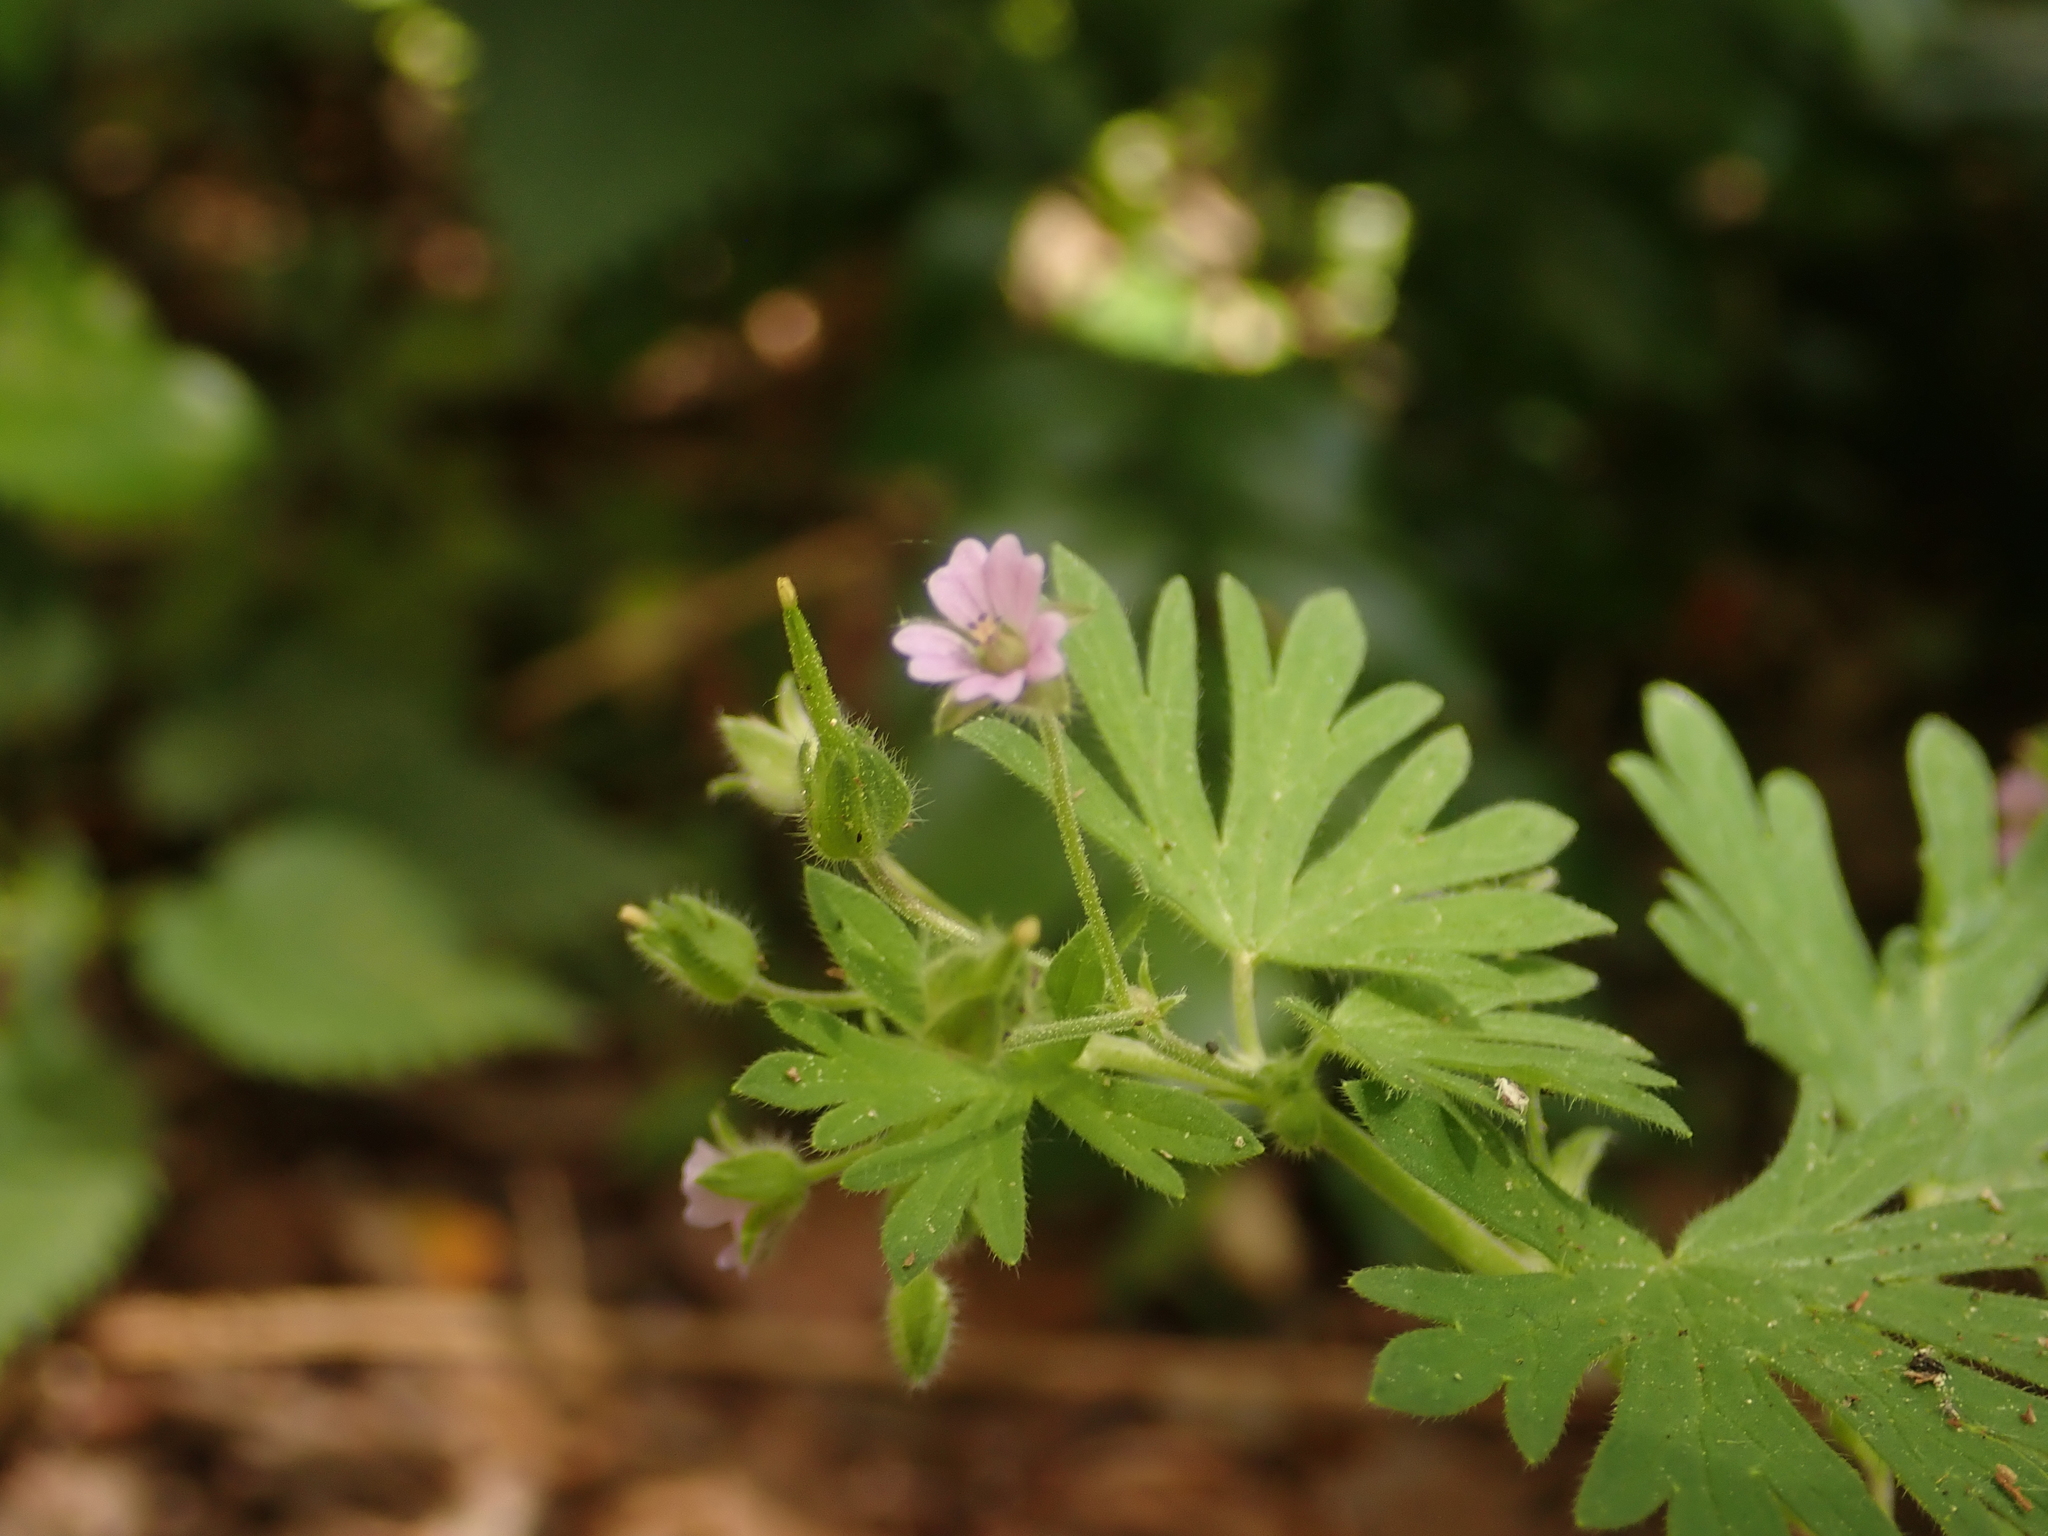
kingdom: Plantae
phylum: Tracheophyta
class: Magnoliopsida
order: Geraniales
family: Geraniaceae
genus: Geranium
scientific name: Geranium pusillum
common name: Small geranium
